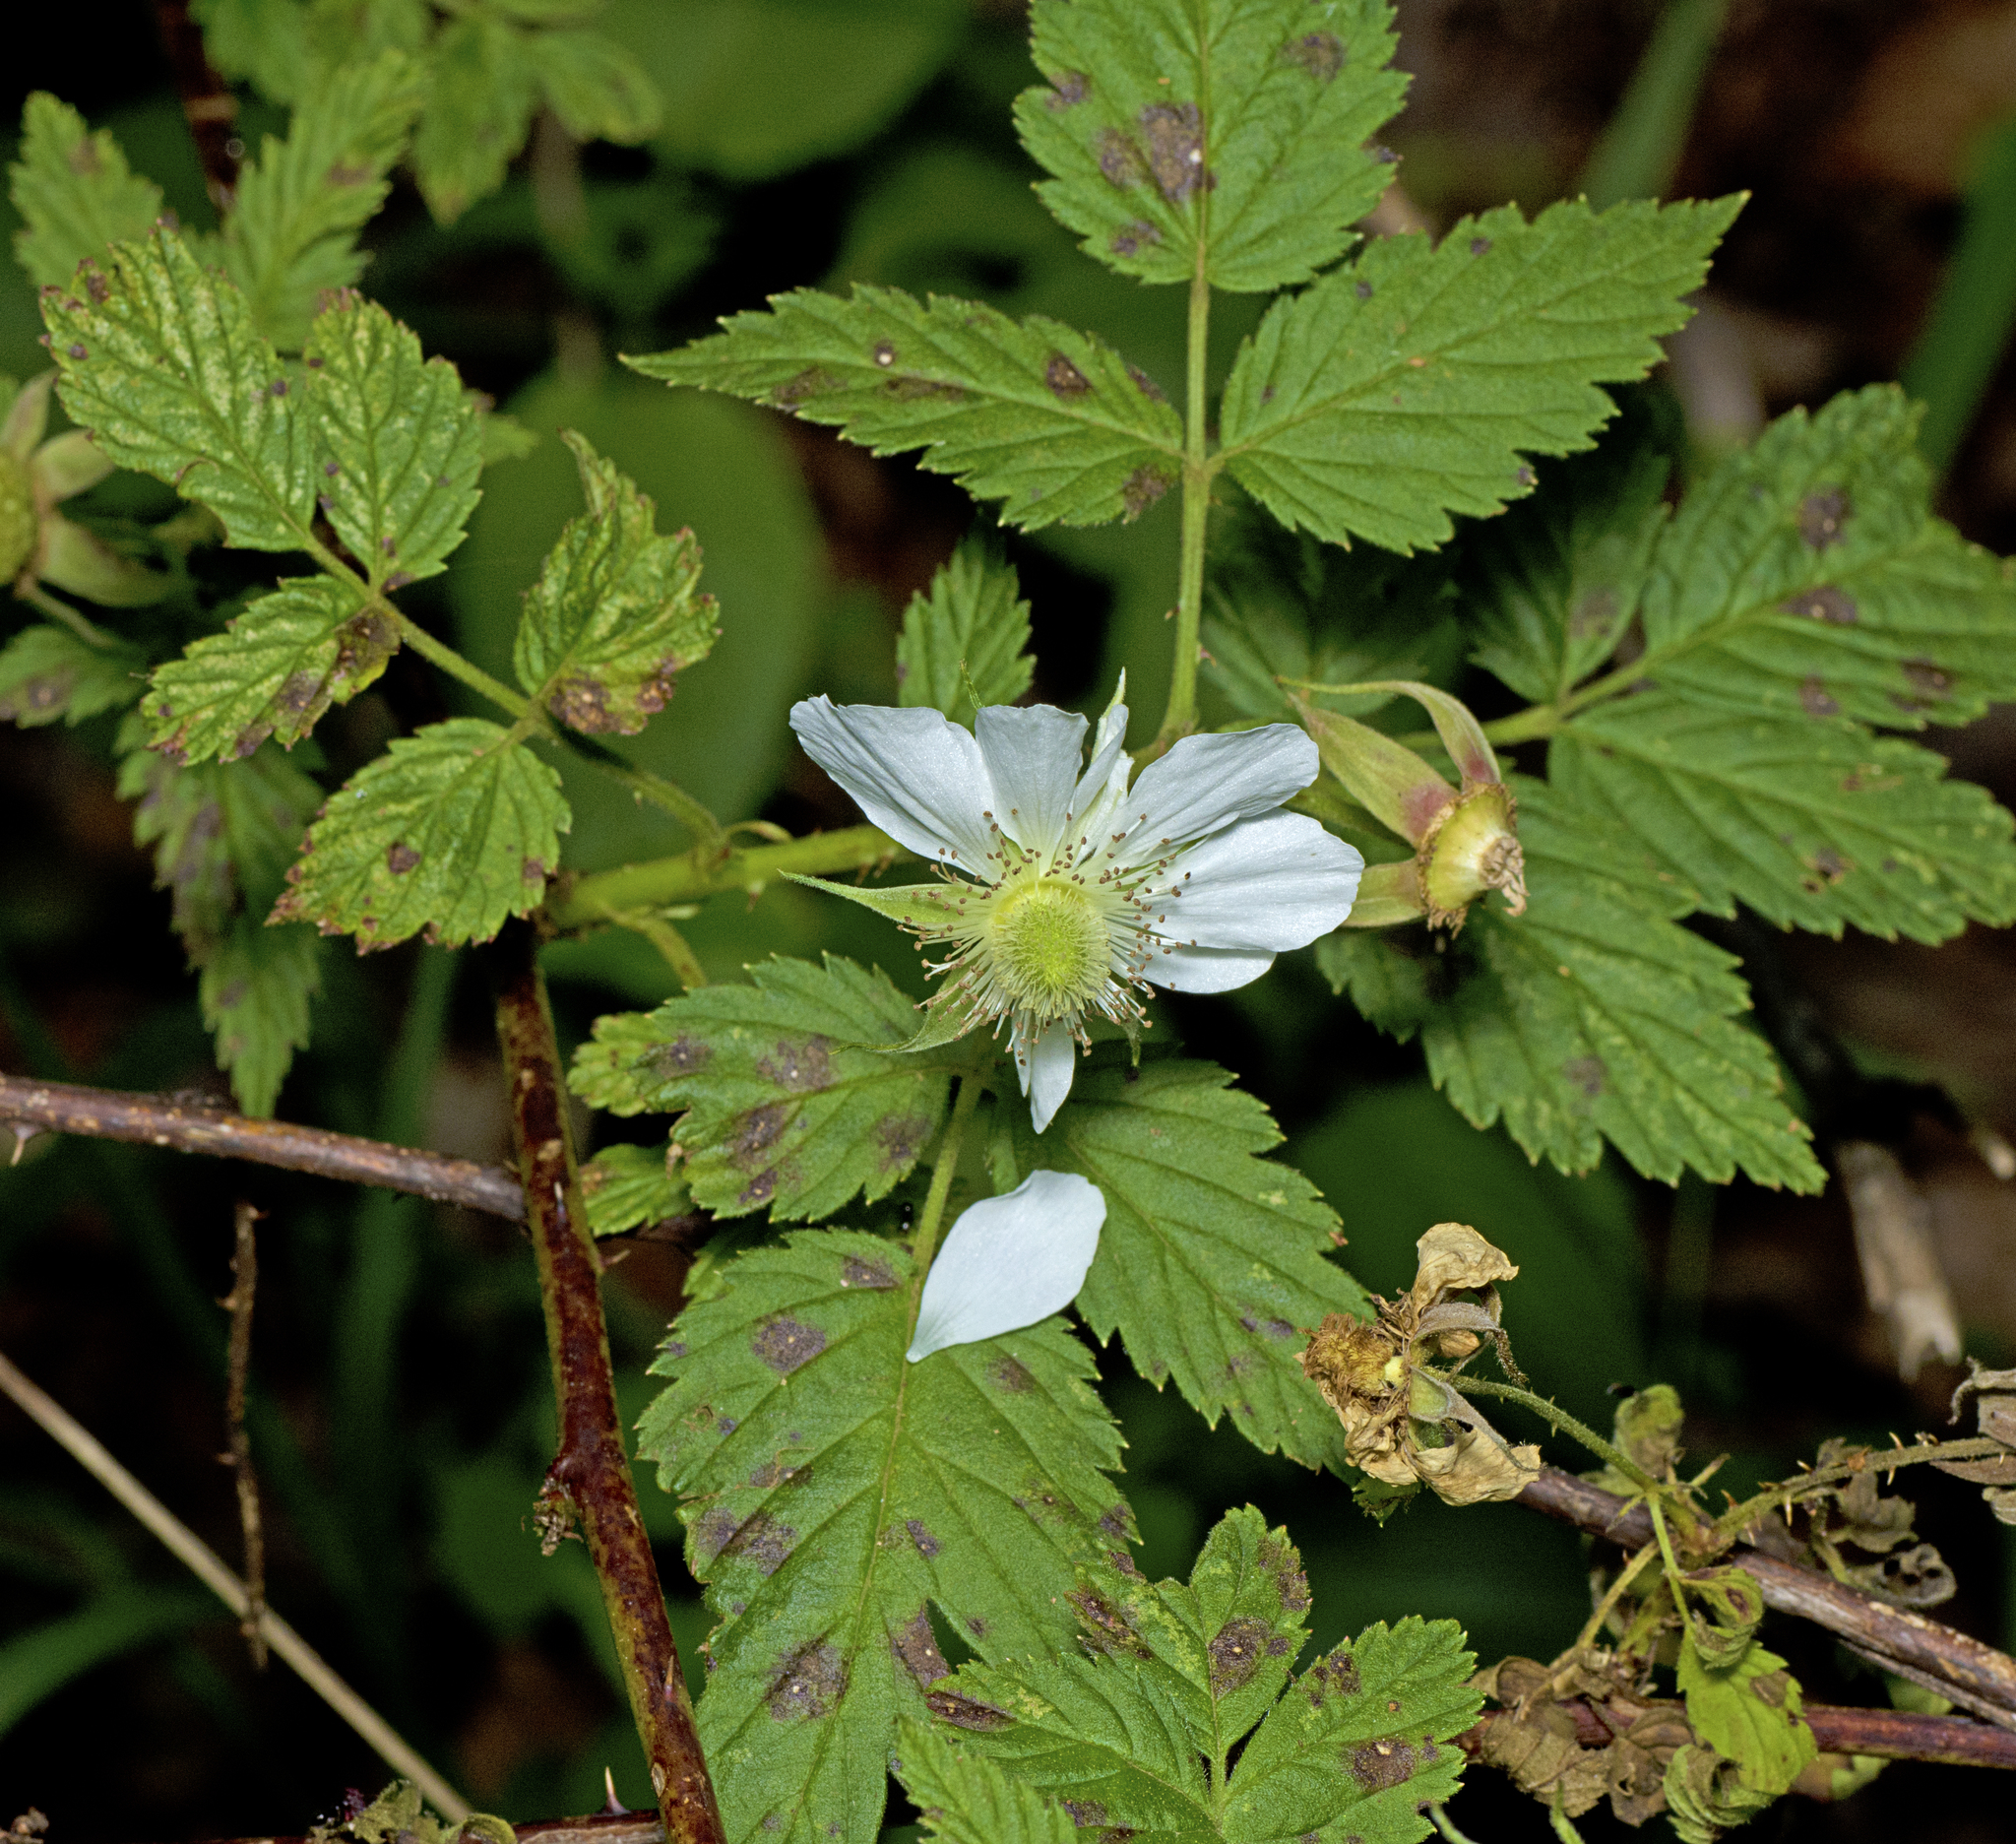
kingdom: Plantae
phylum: Tracheophyta
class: Magnoliopsida
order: Rosales
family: Rosaceae
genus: Rubus
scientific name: Rubus rosifolius
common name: Roseleaf raspberry
